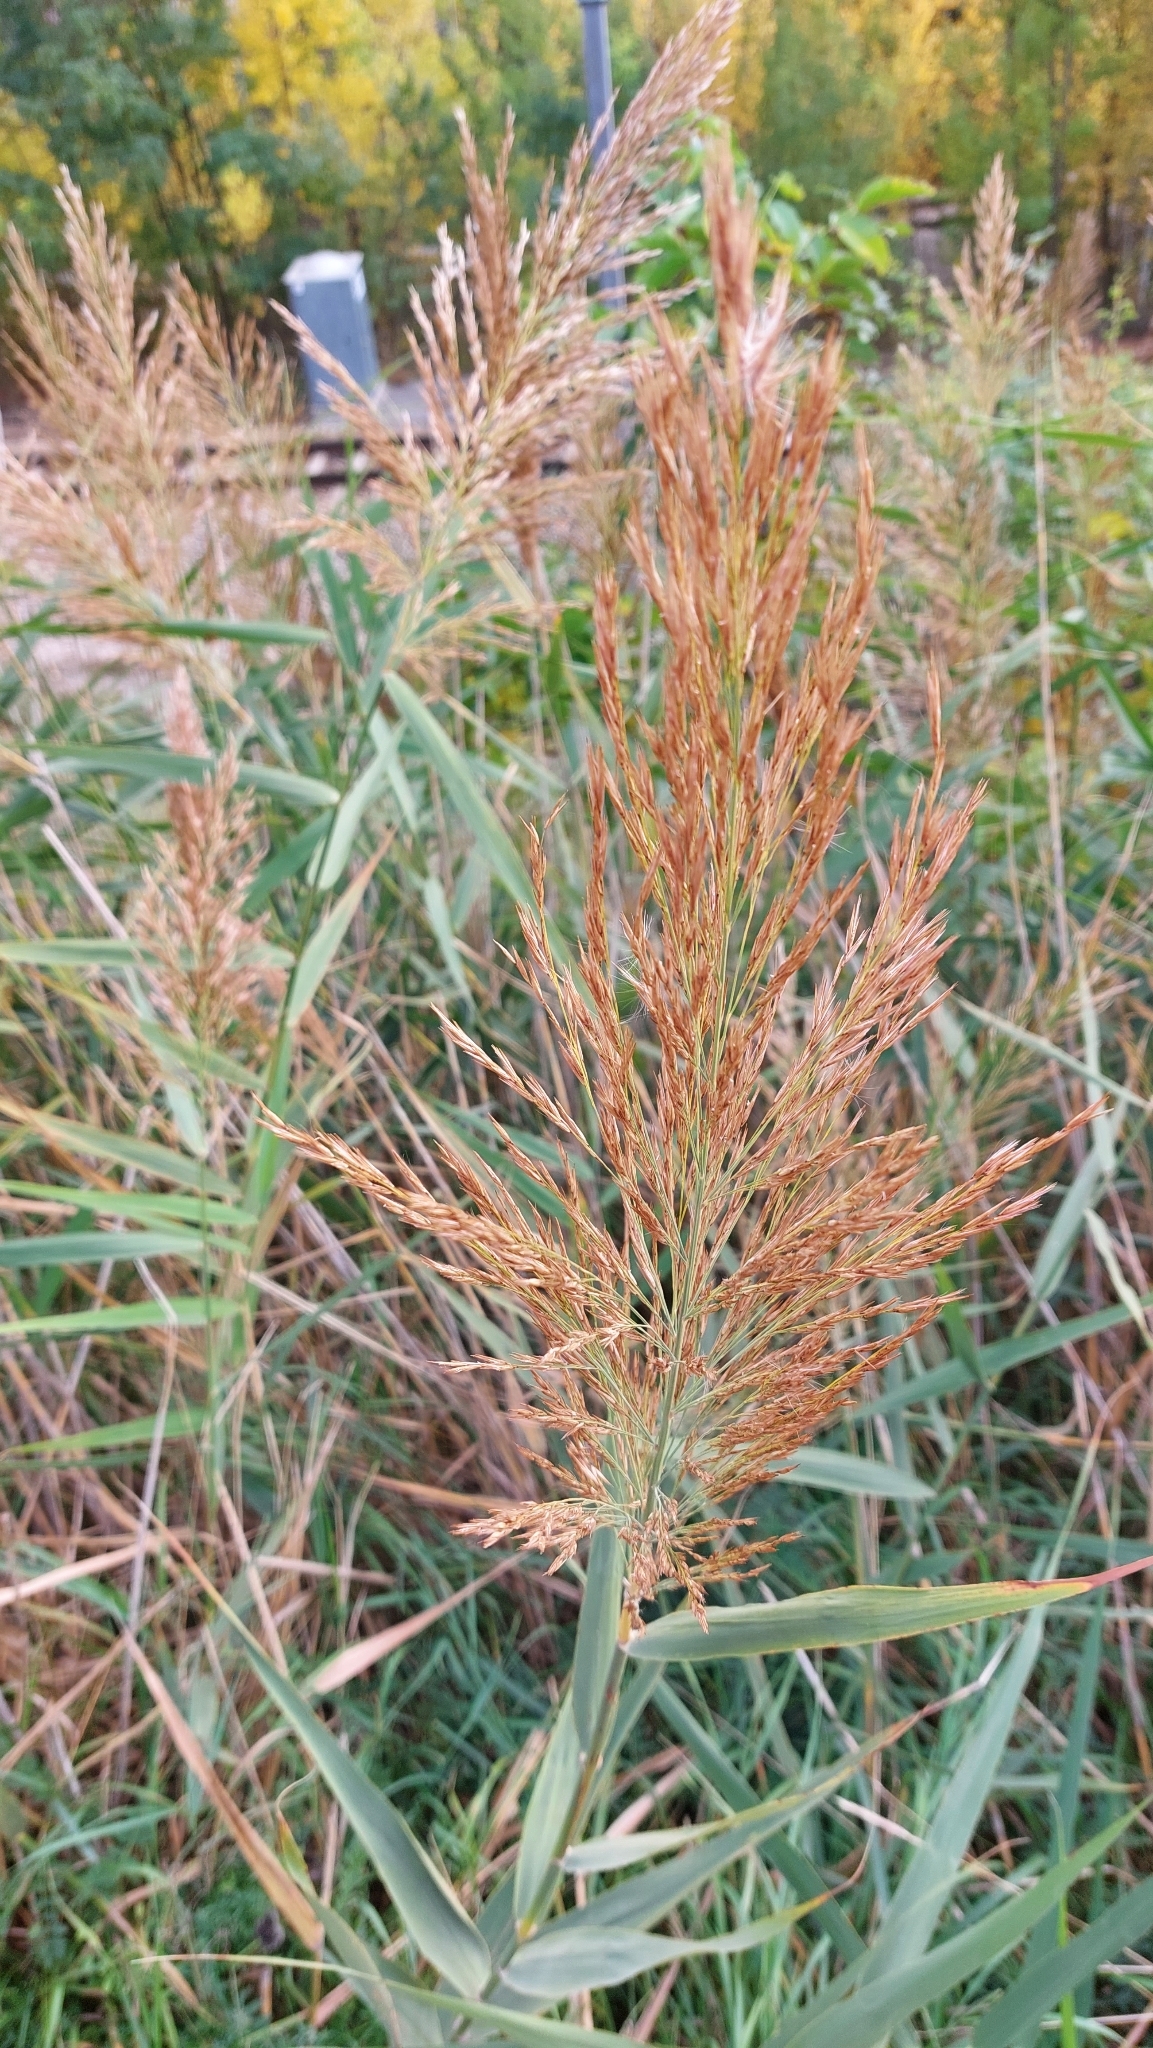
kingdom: Plantae
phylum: Tracheophyta
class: Liliopsida
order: Poales
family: Poaceae
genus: Phragmites
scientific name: Phragmites australis
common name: Common reed
